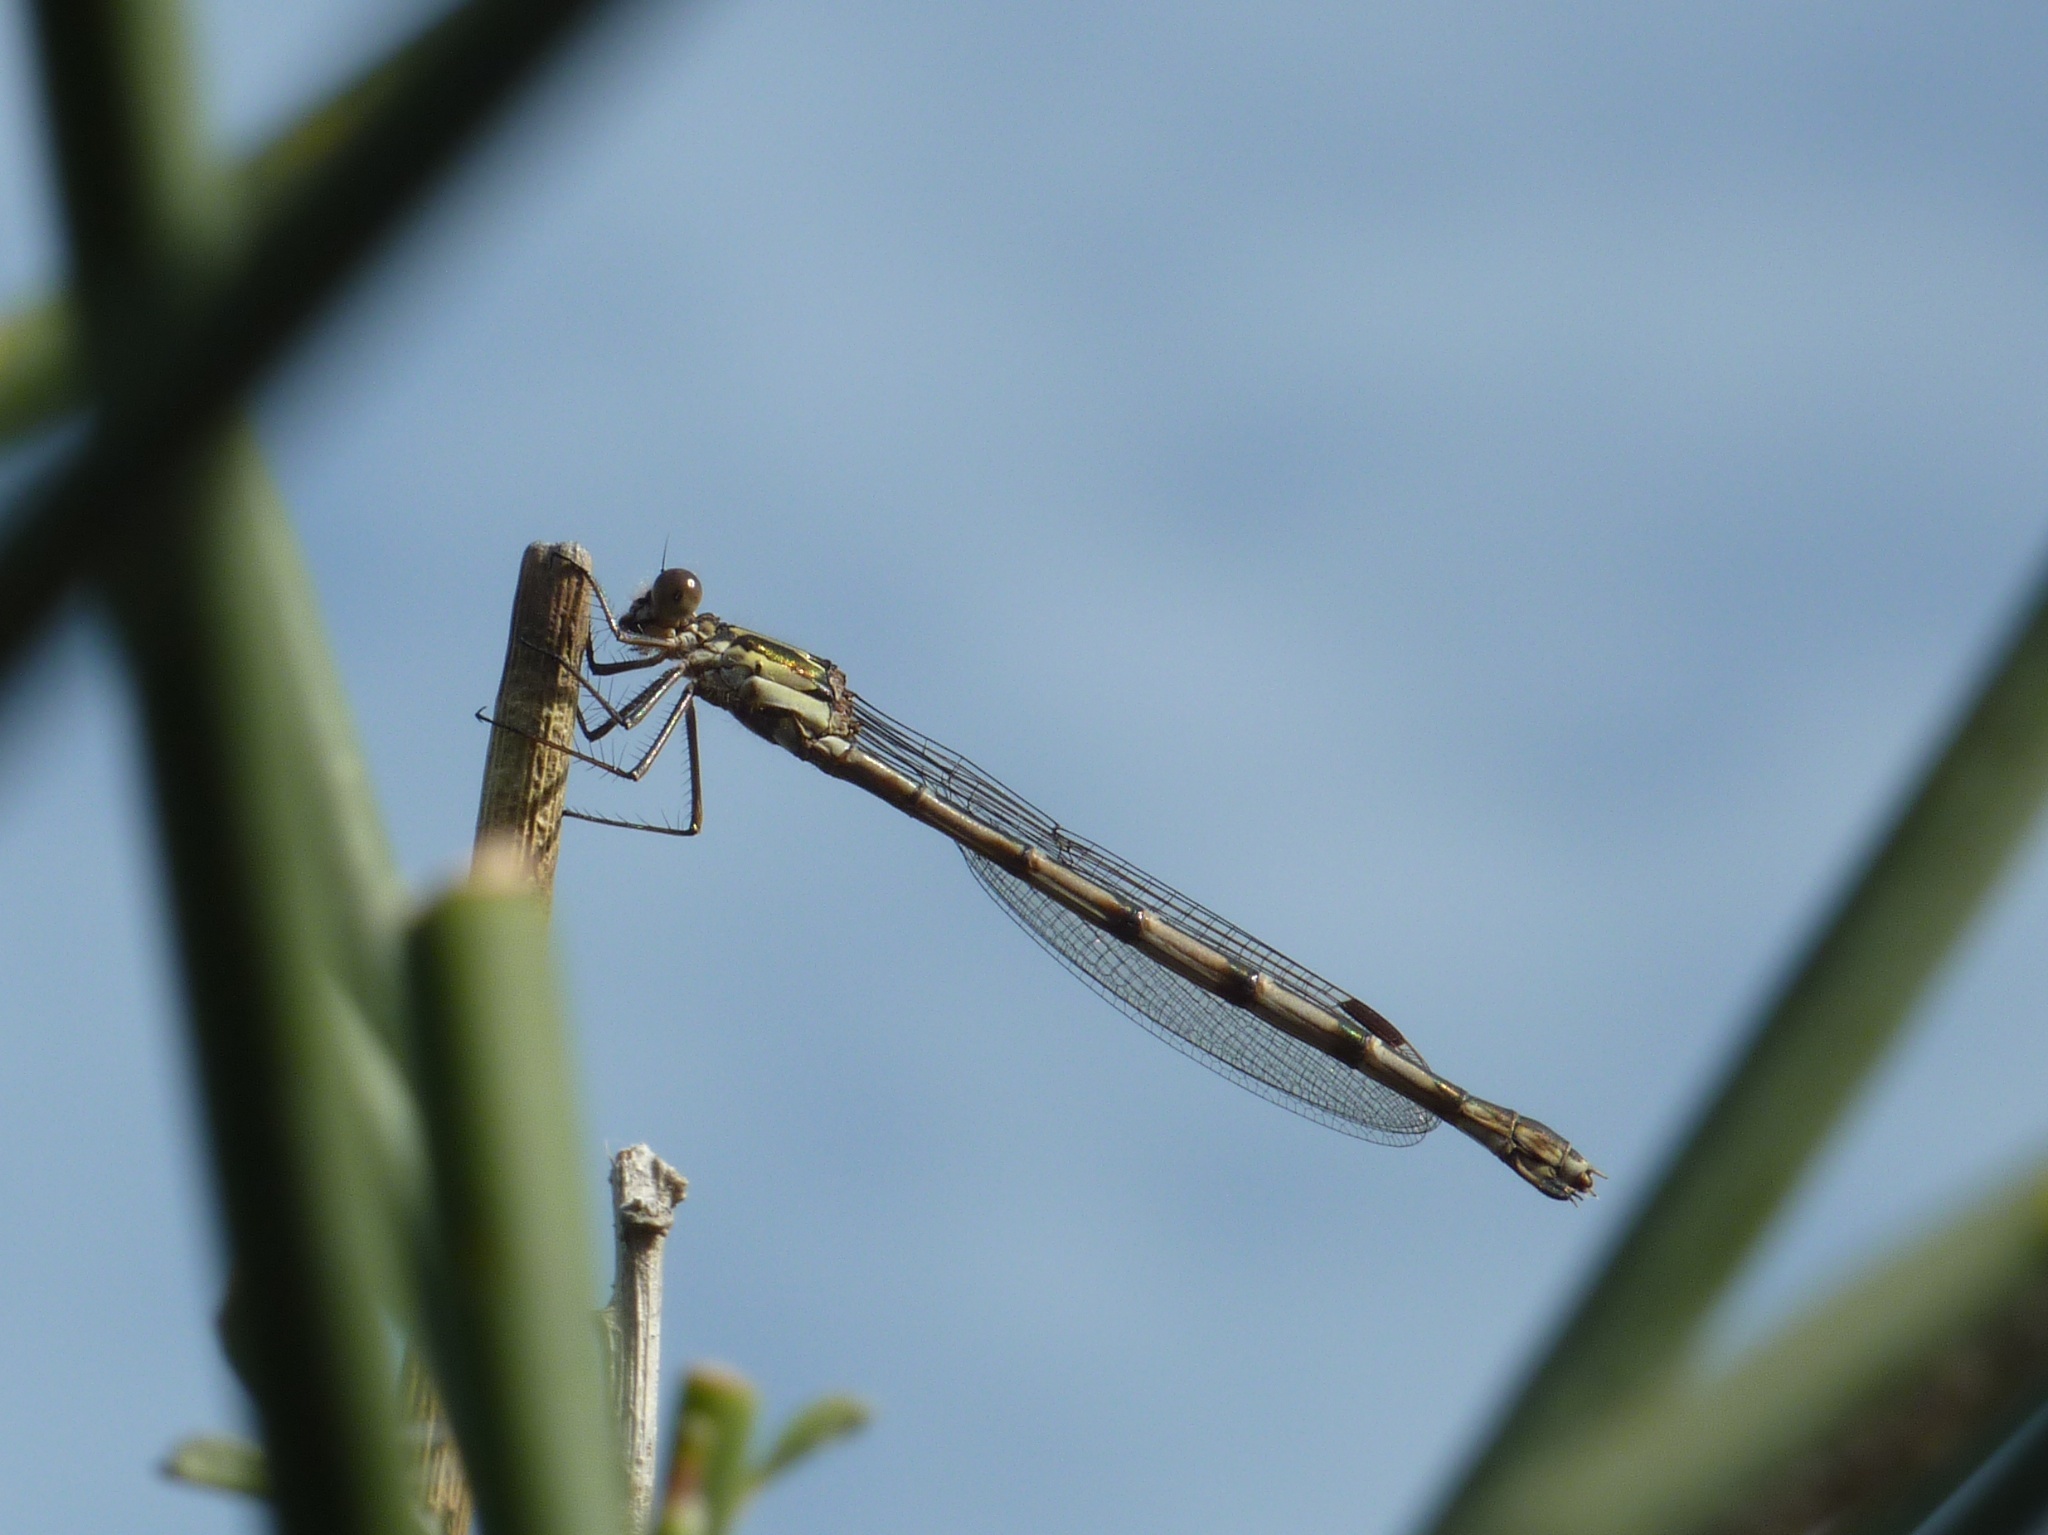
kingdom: Animalia
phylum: Arthropoda
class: Insecta
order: Odonata
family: Lestidae
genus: Austrolestes
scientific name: Austrolestes colensonis
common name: Blue damselfly
